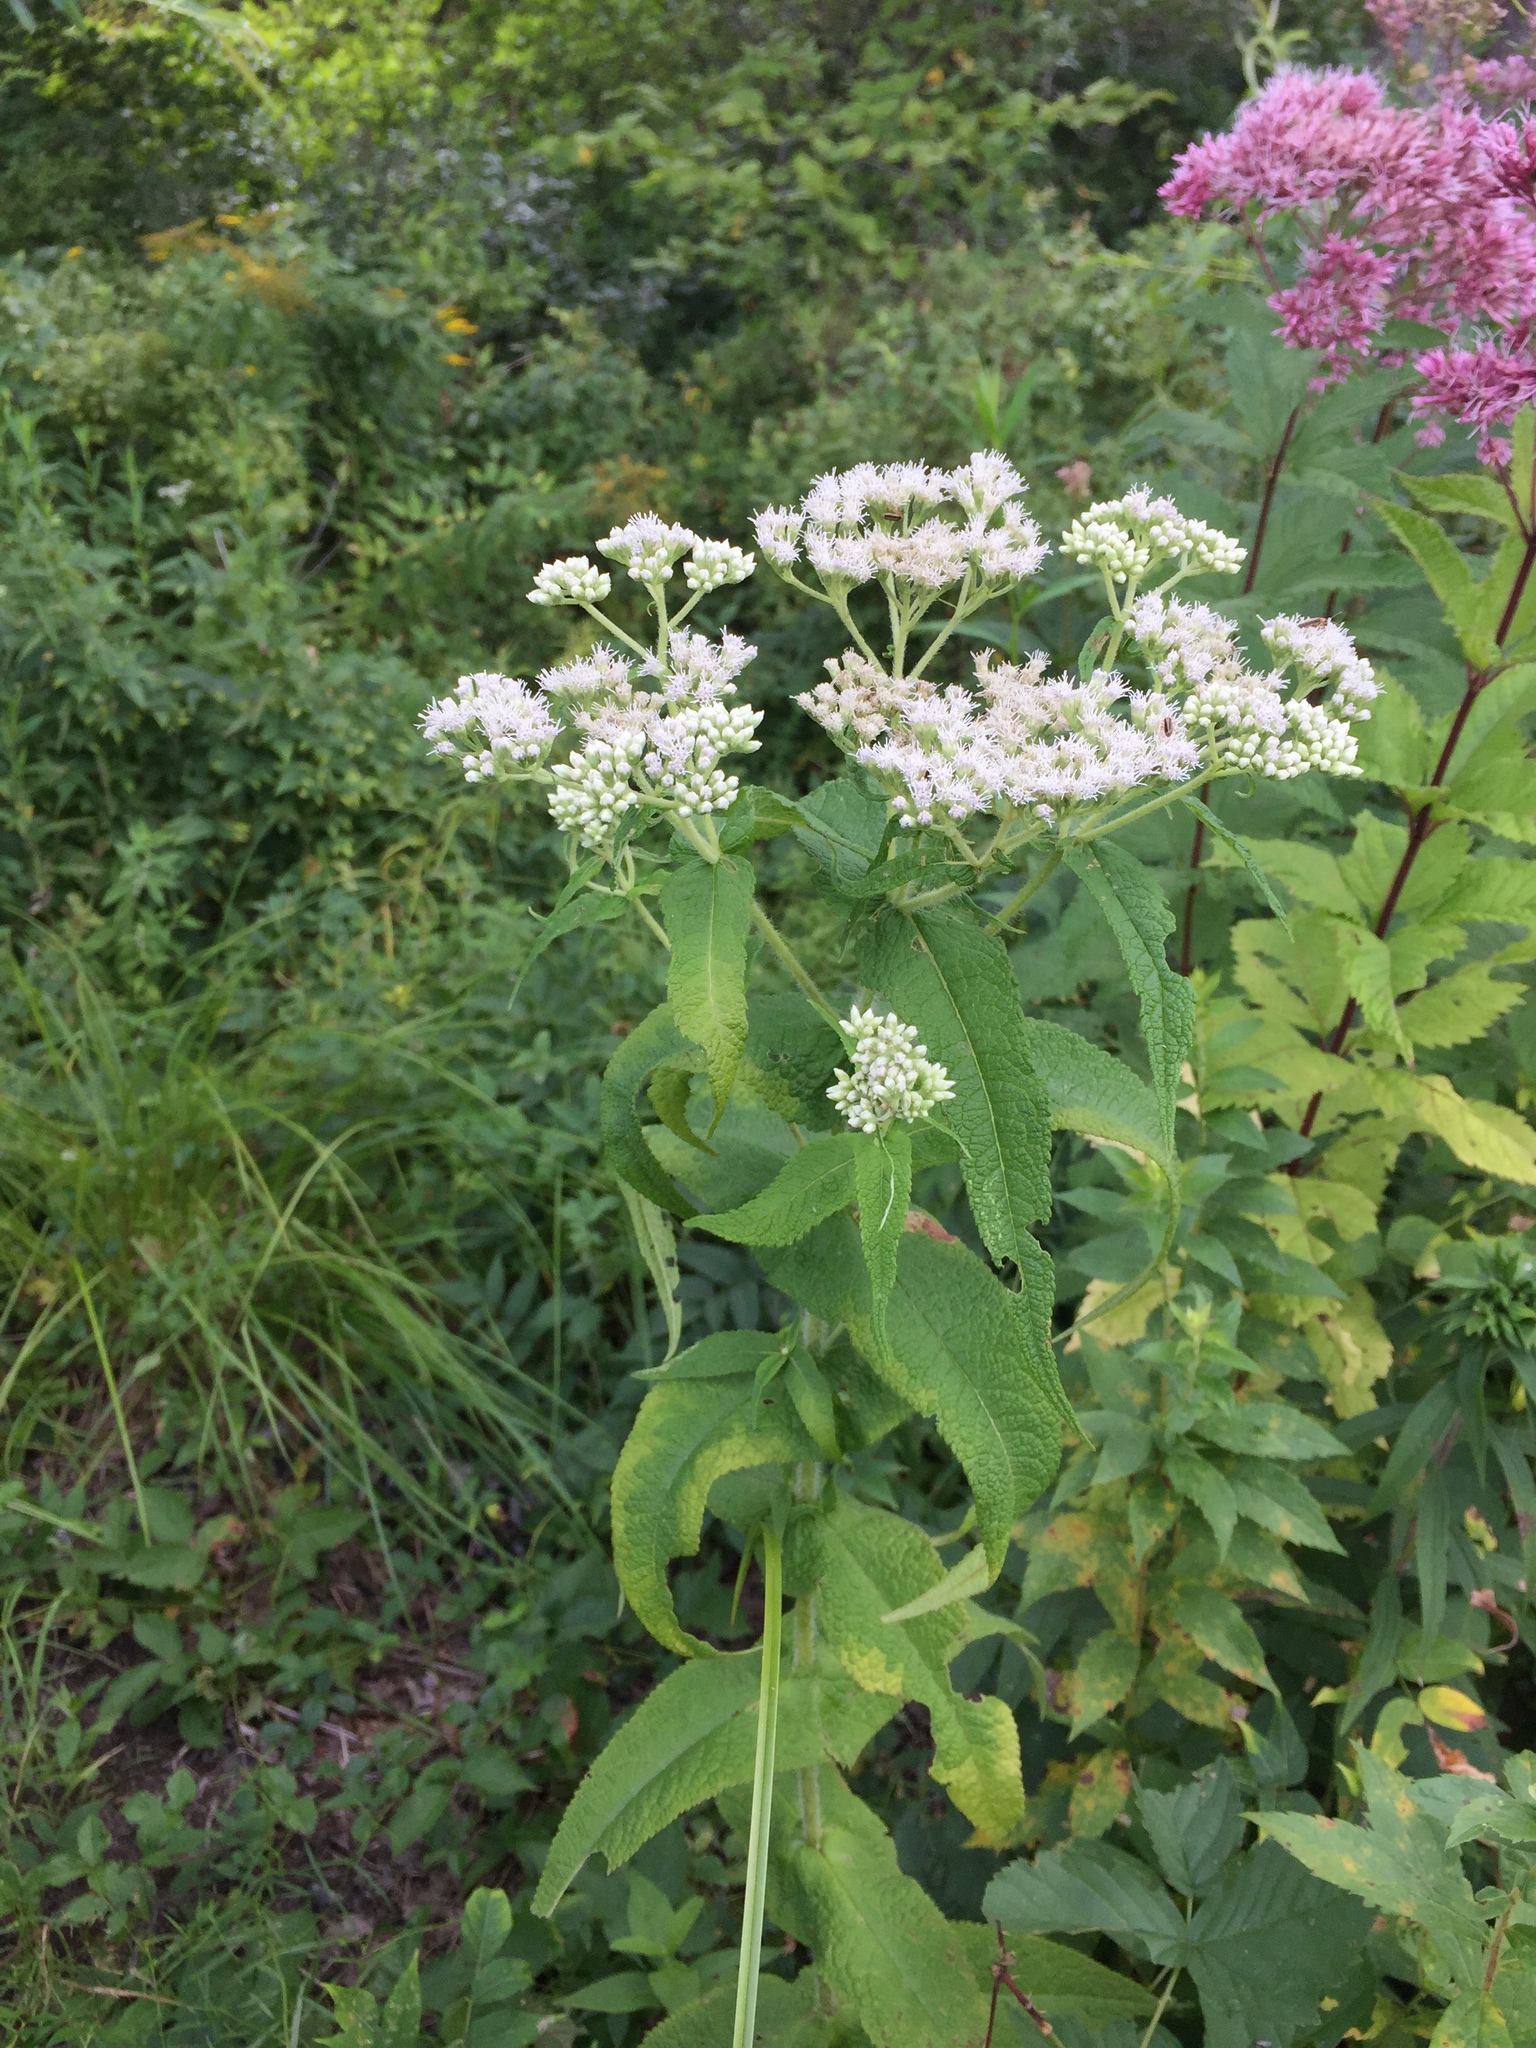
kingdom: Plantae
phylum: Tracheophyta
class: Magnoliopsida
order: Asterales
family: Asteraceae
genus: Eupatorium
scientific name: Eupatorium perfoliatum
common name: Boneset
